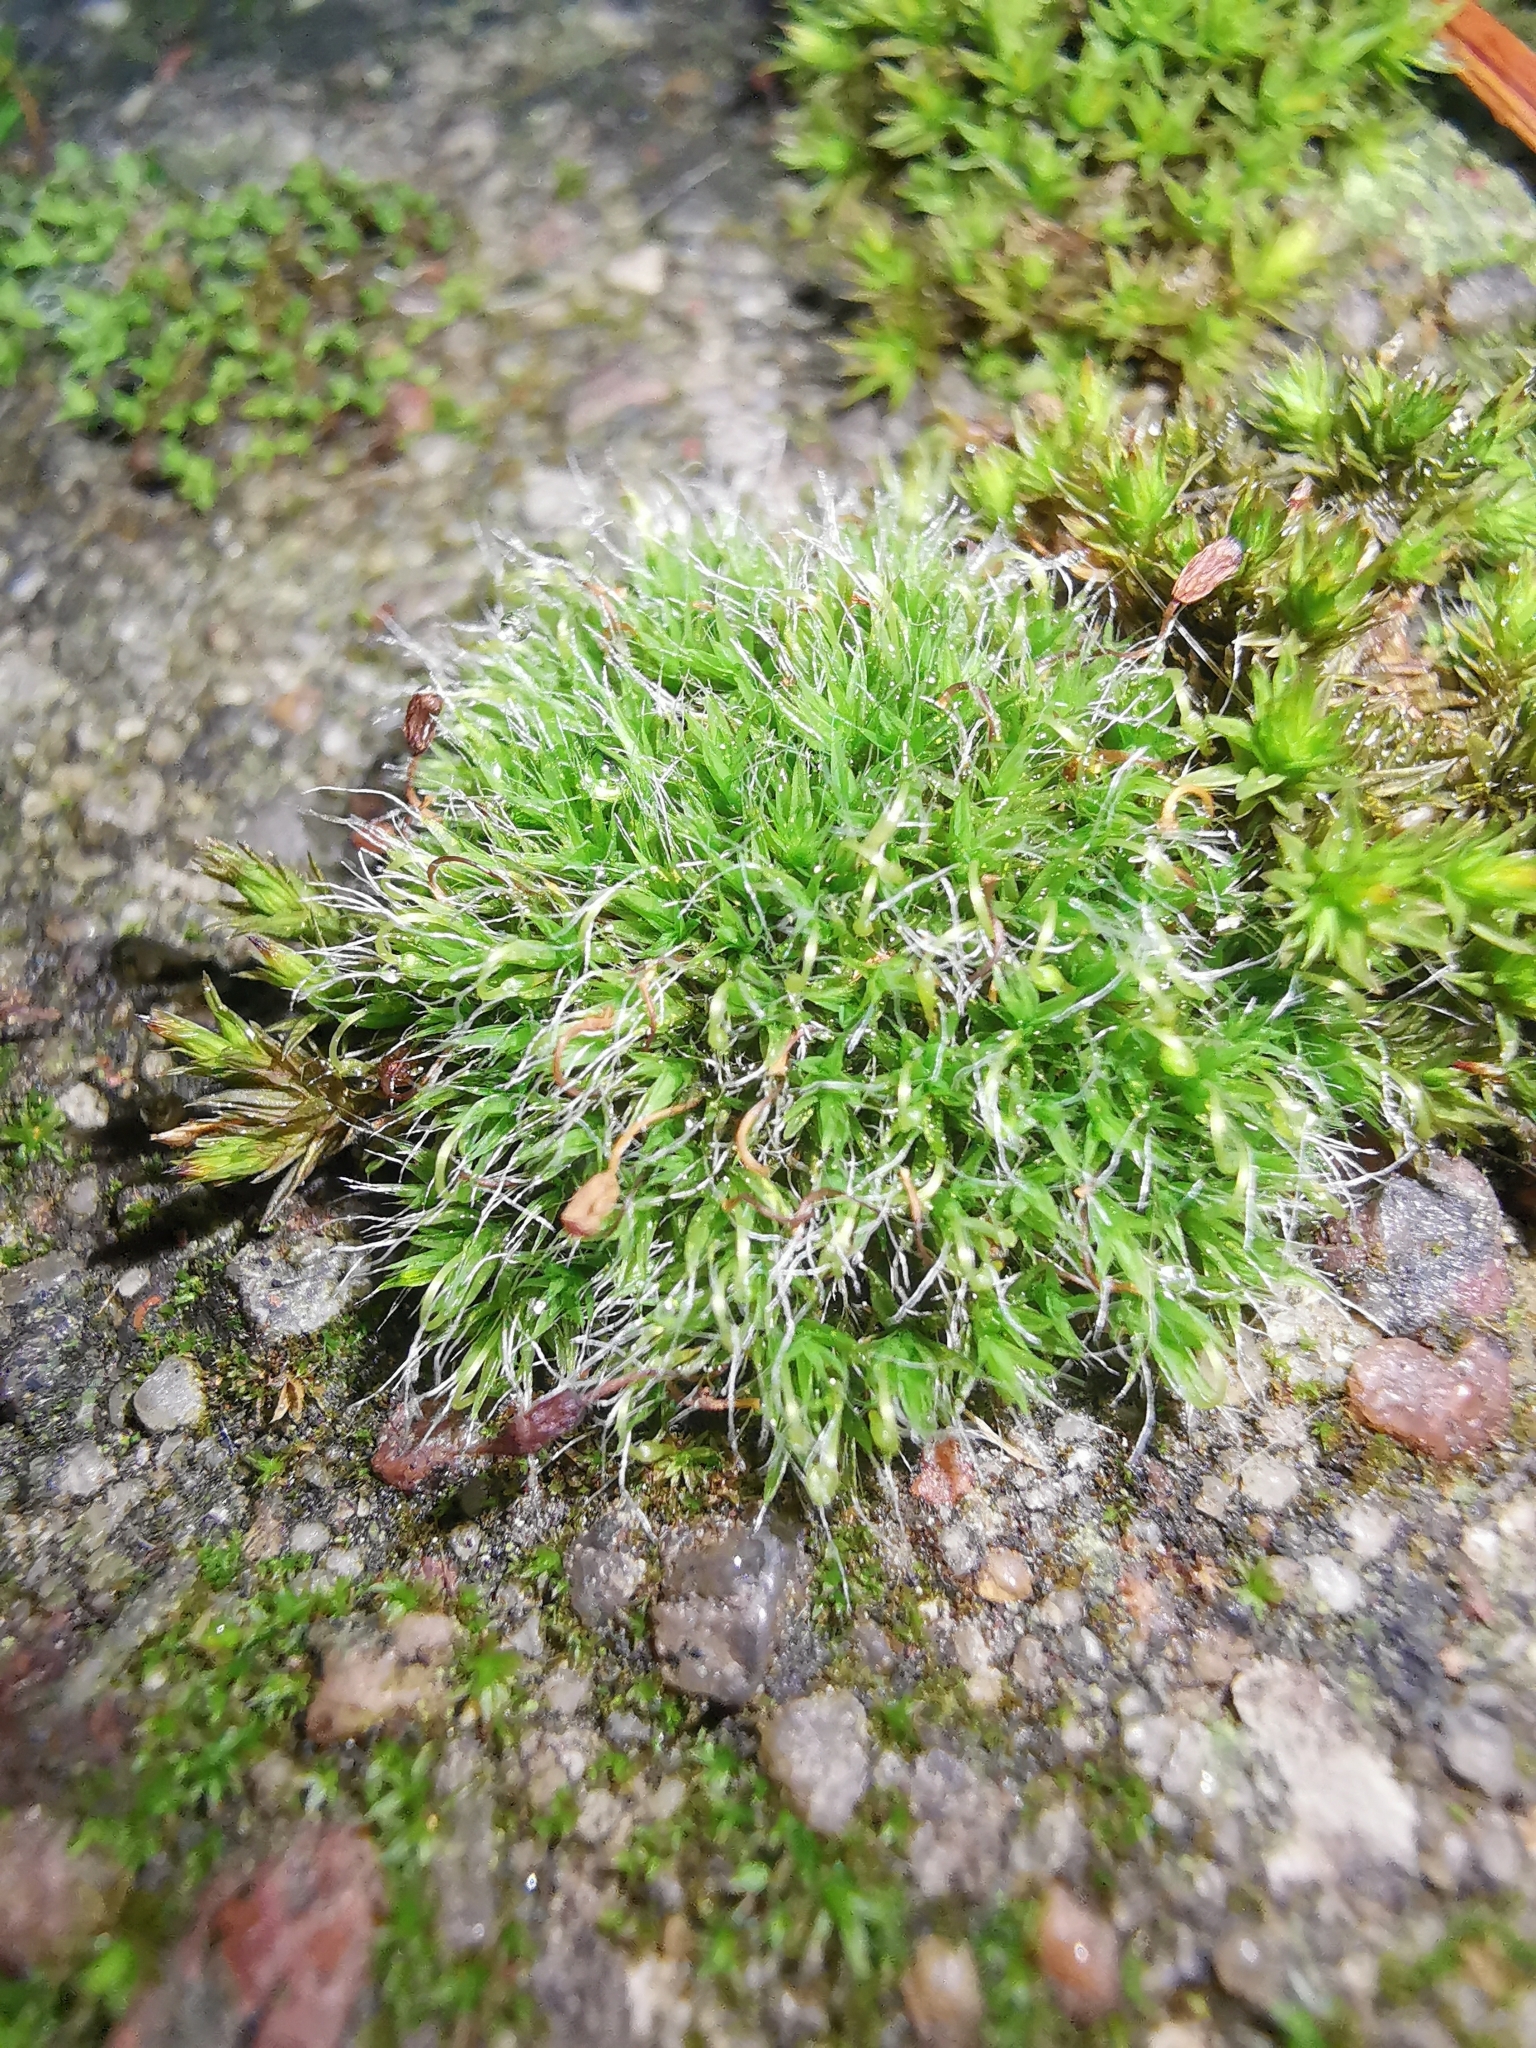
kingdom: Plantae
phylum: Bryophyta
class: Bryopsida
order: Grimmiales
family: Grimmiaceae
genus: Grimmia
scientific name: Grimmia pulvinata
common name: Grey-cushioned grimmia
